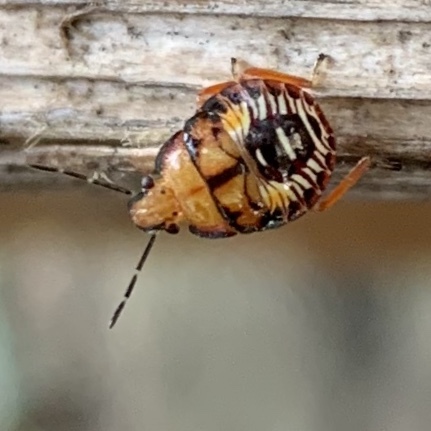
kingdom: Animalia
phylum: Arthropoda
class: Insecta
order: Hemiptera
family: Pentatomidae
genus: Podisus
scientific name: Podisus maculiventris
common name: Spined soldier bug
